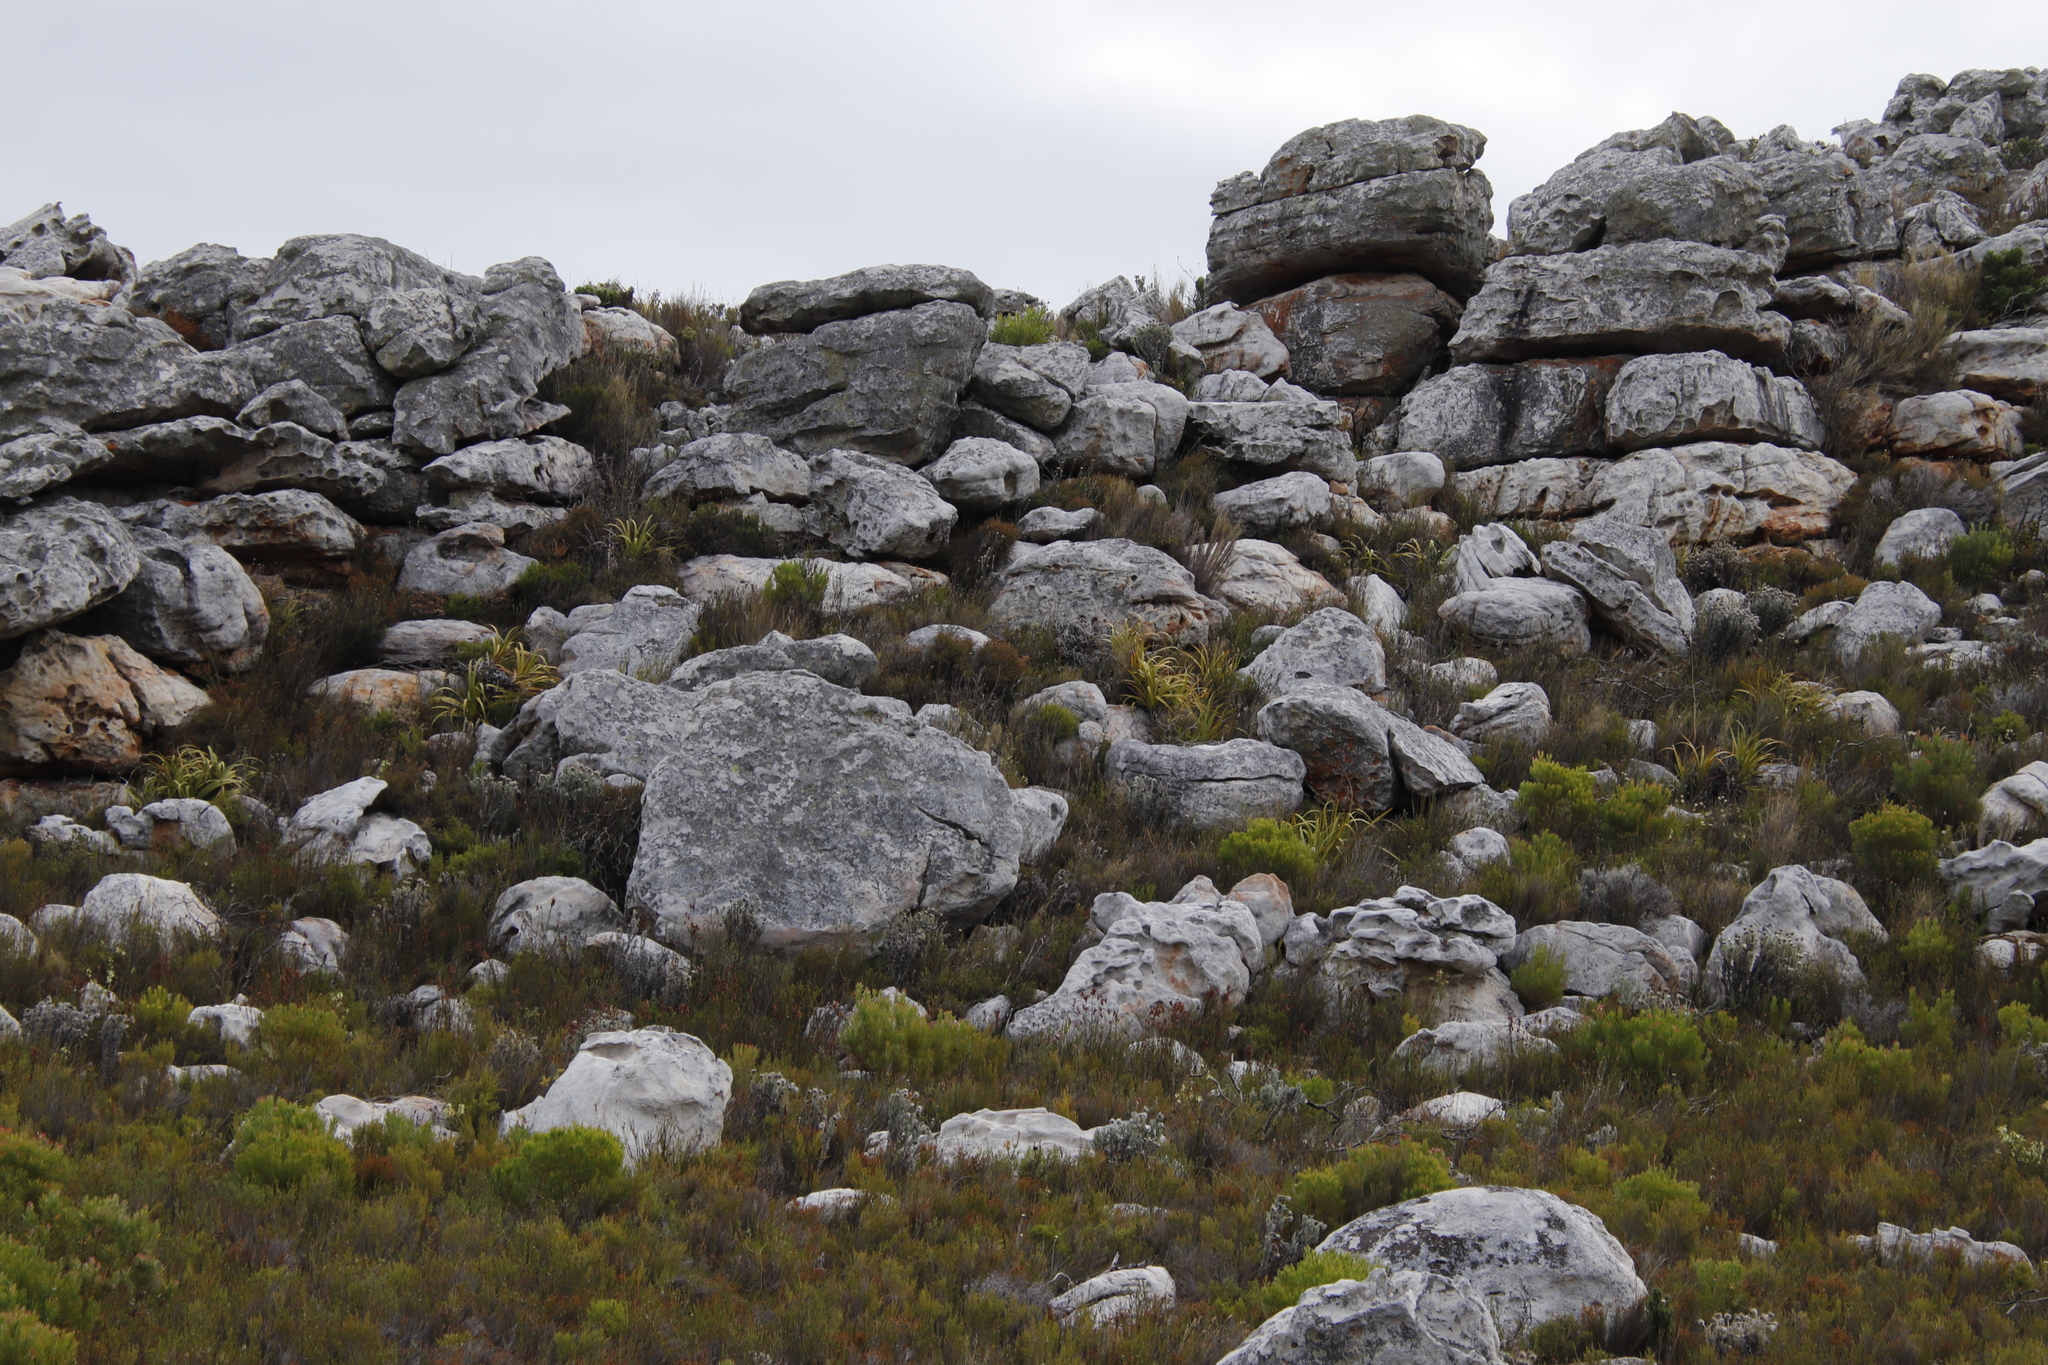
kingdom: Plantae
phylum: Tracheophyta
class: Liliopsida
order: Poales
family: Cyperaceae
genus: Tetraria
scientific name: Tetraria thermalis
